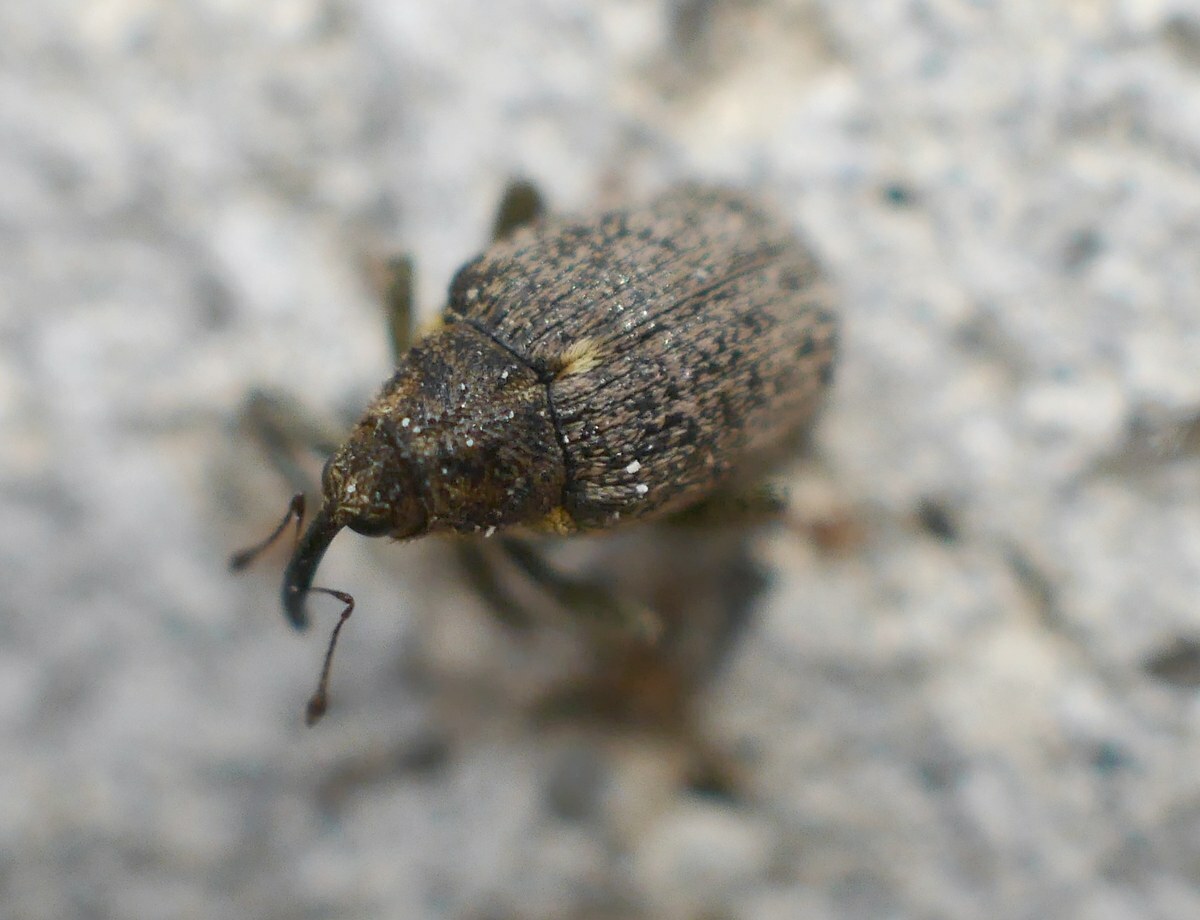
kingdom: Animalia
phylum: Arthropoda
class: Insecta
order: Coleoptera
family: Curculionidae
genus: Ceutorhynchus
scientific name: Ceutorhynchus pallidactylus
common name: Cabbage stem weavil
